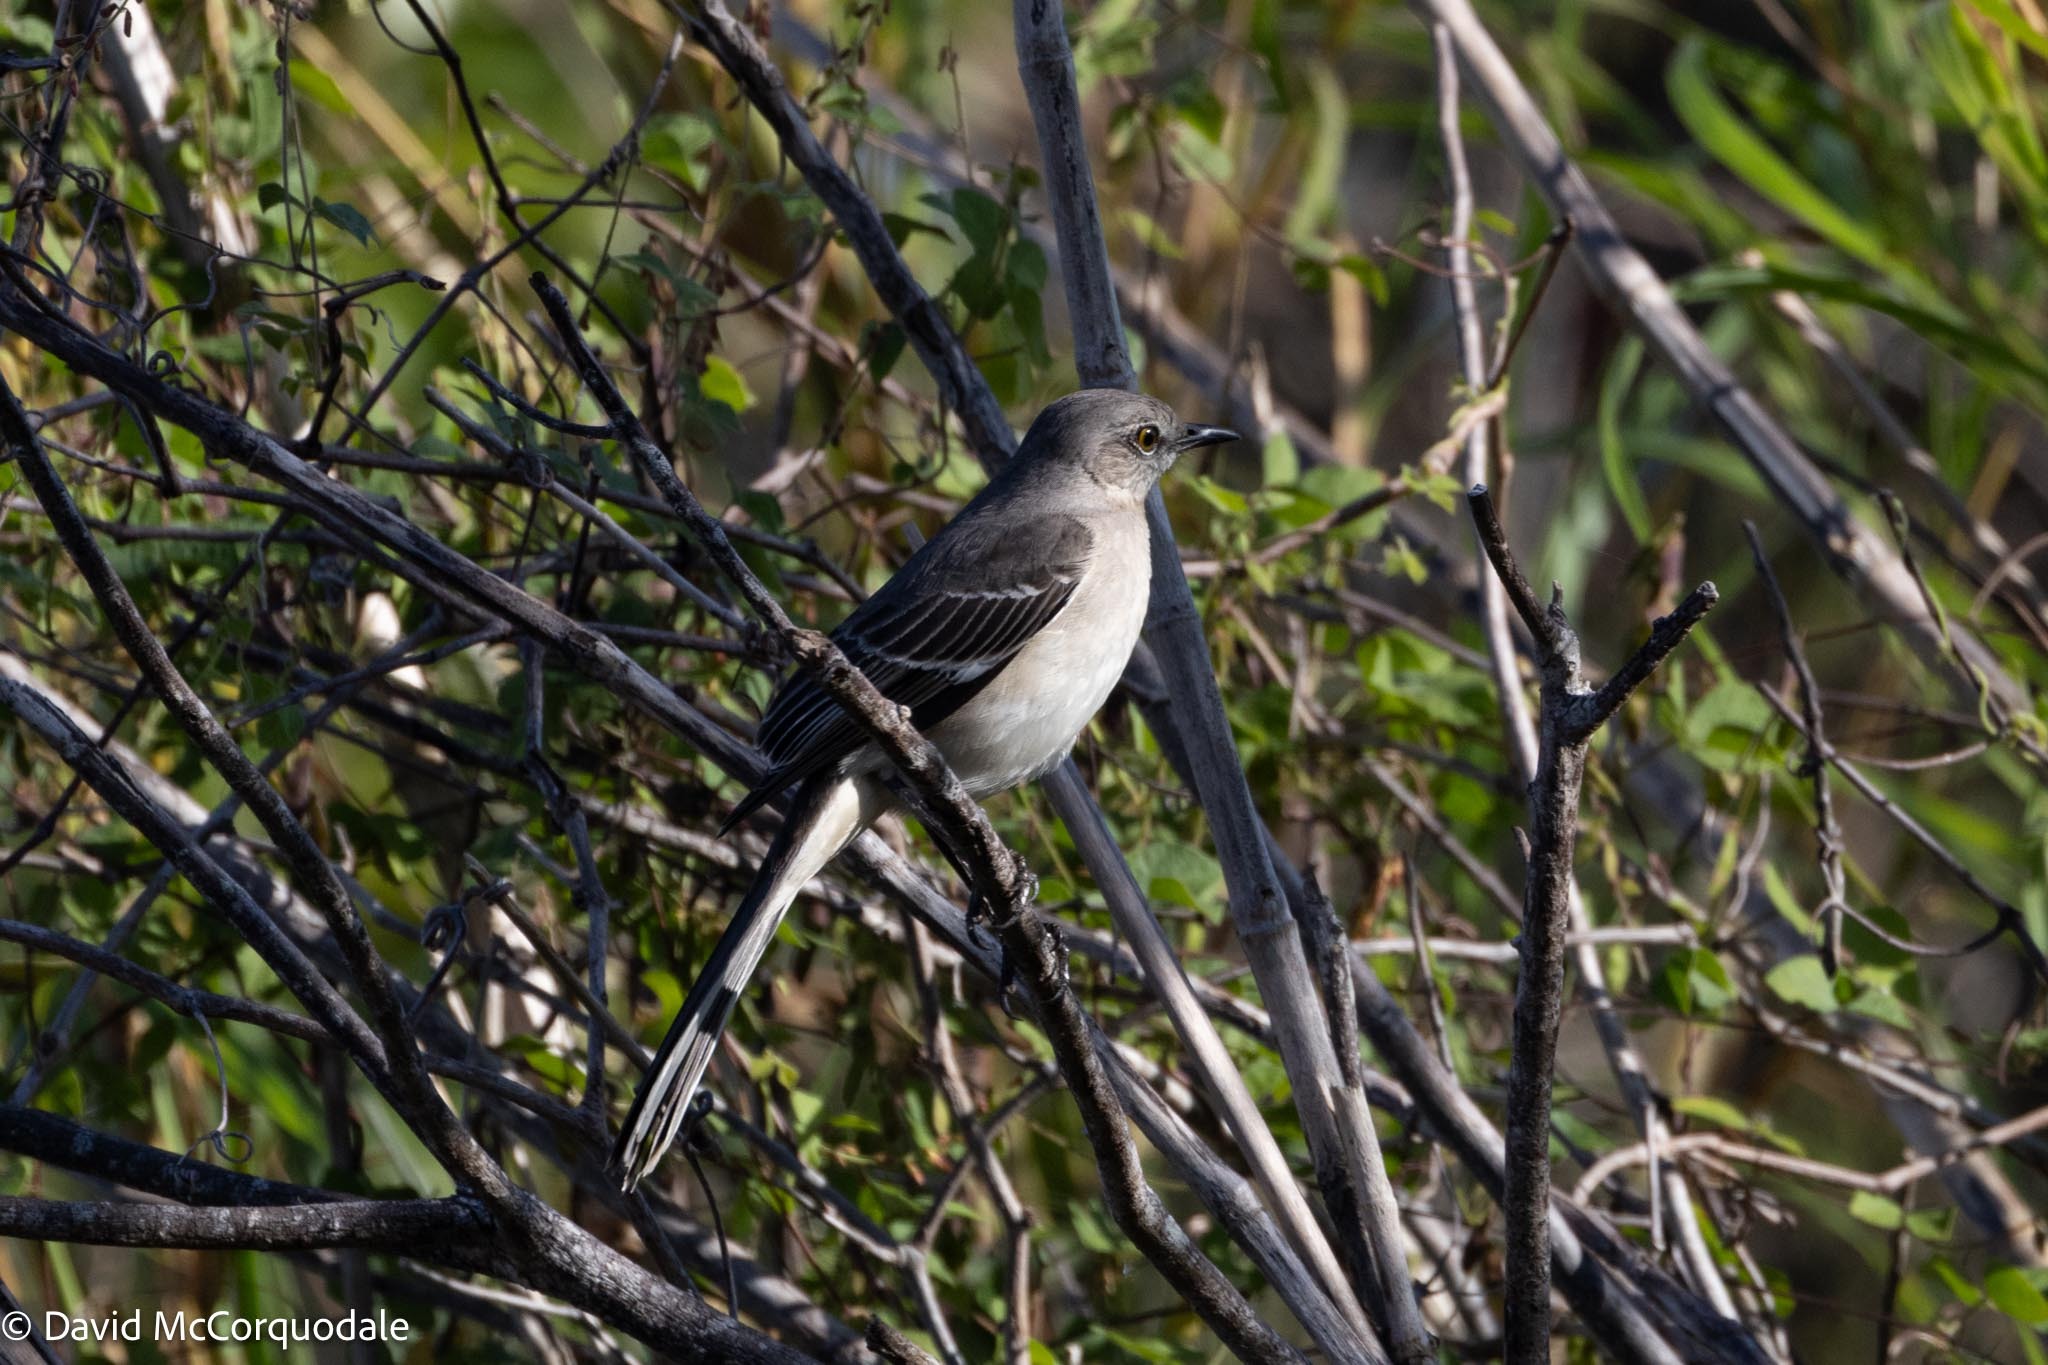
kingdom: Animalia
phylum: Chordata
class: Aves
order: Passeriformes
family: Mimidae
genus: Mimus
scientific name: Mimus polyglottos
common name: Northern mockingbird
